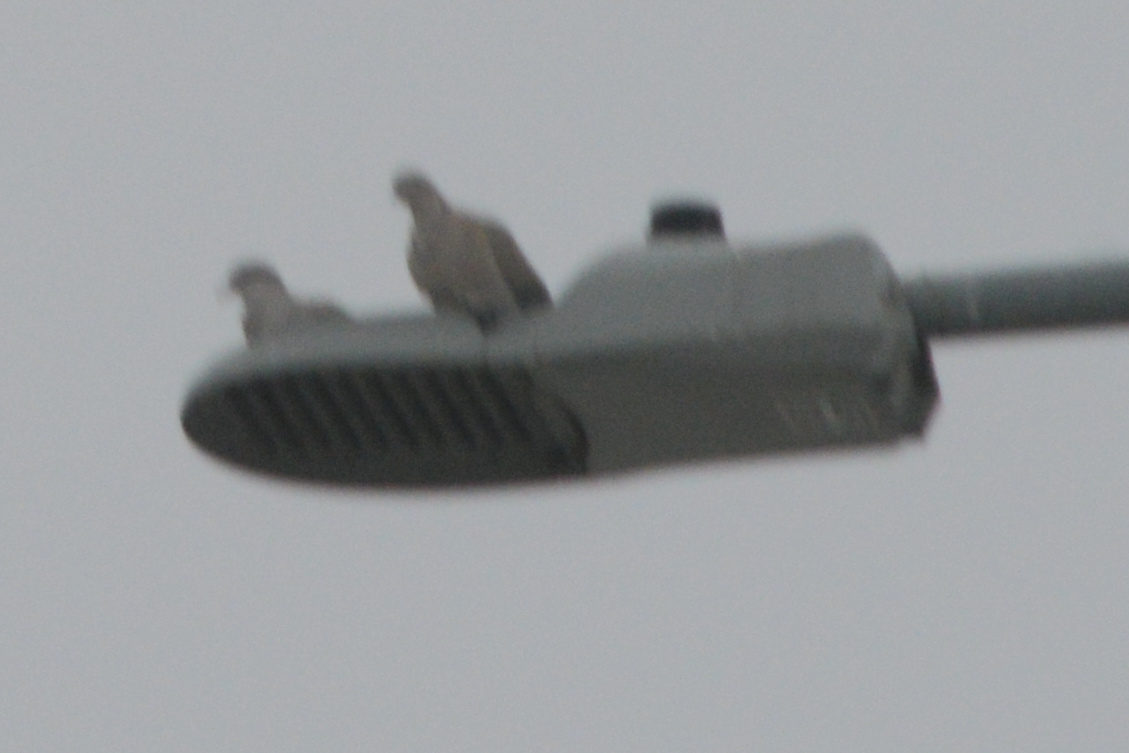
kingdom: Animalia
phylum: Chordata
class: Aves
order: Columbiformes
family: Columbidae
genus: Columba
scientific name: Columba livia
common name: Rock pigeon
